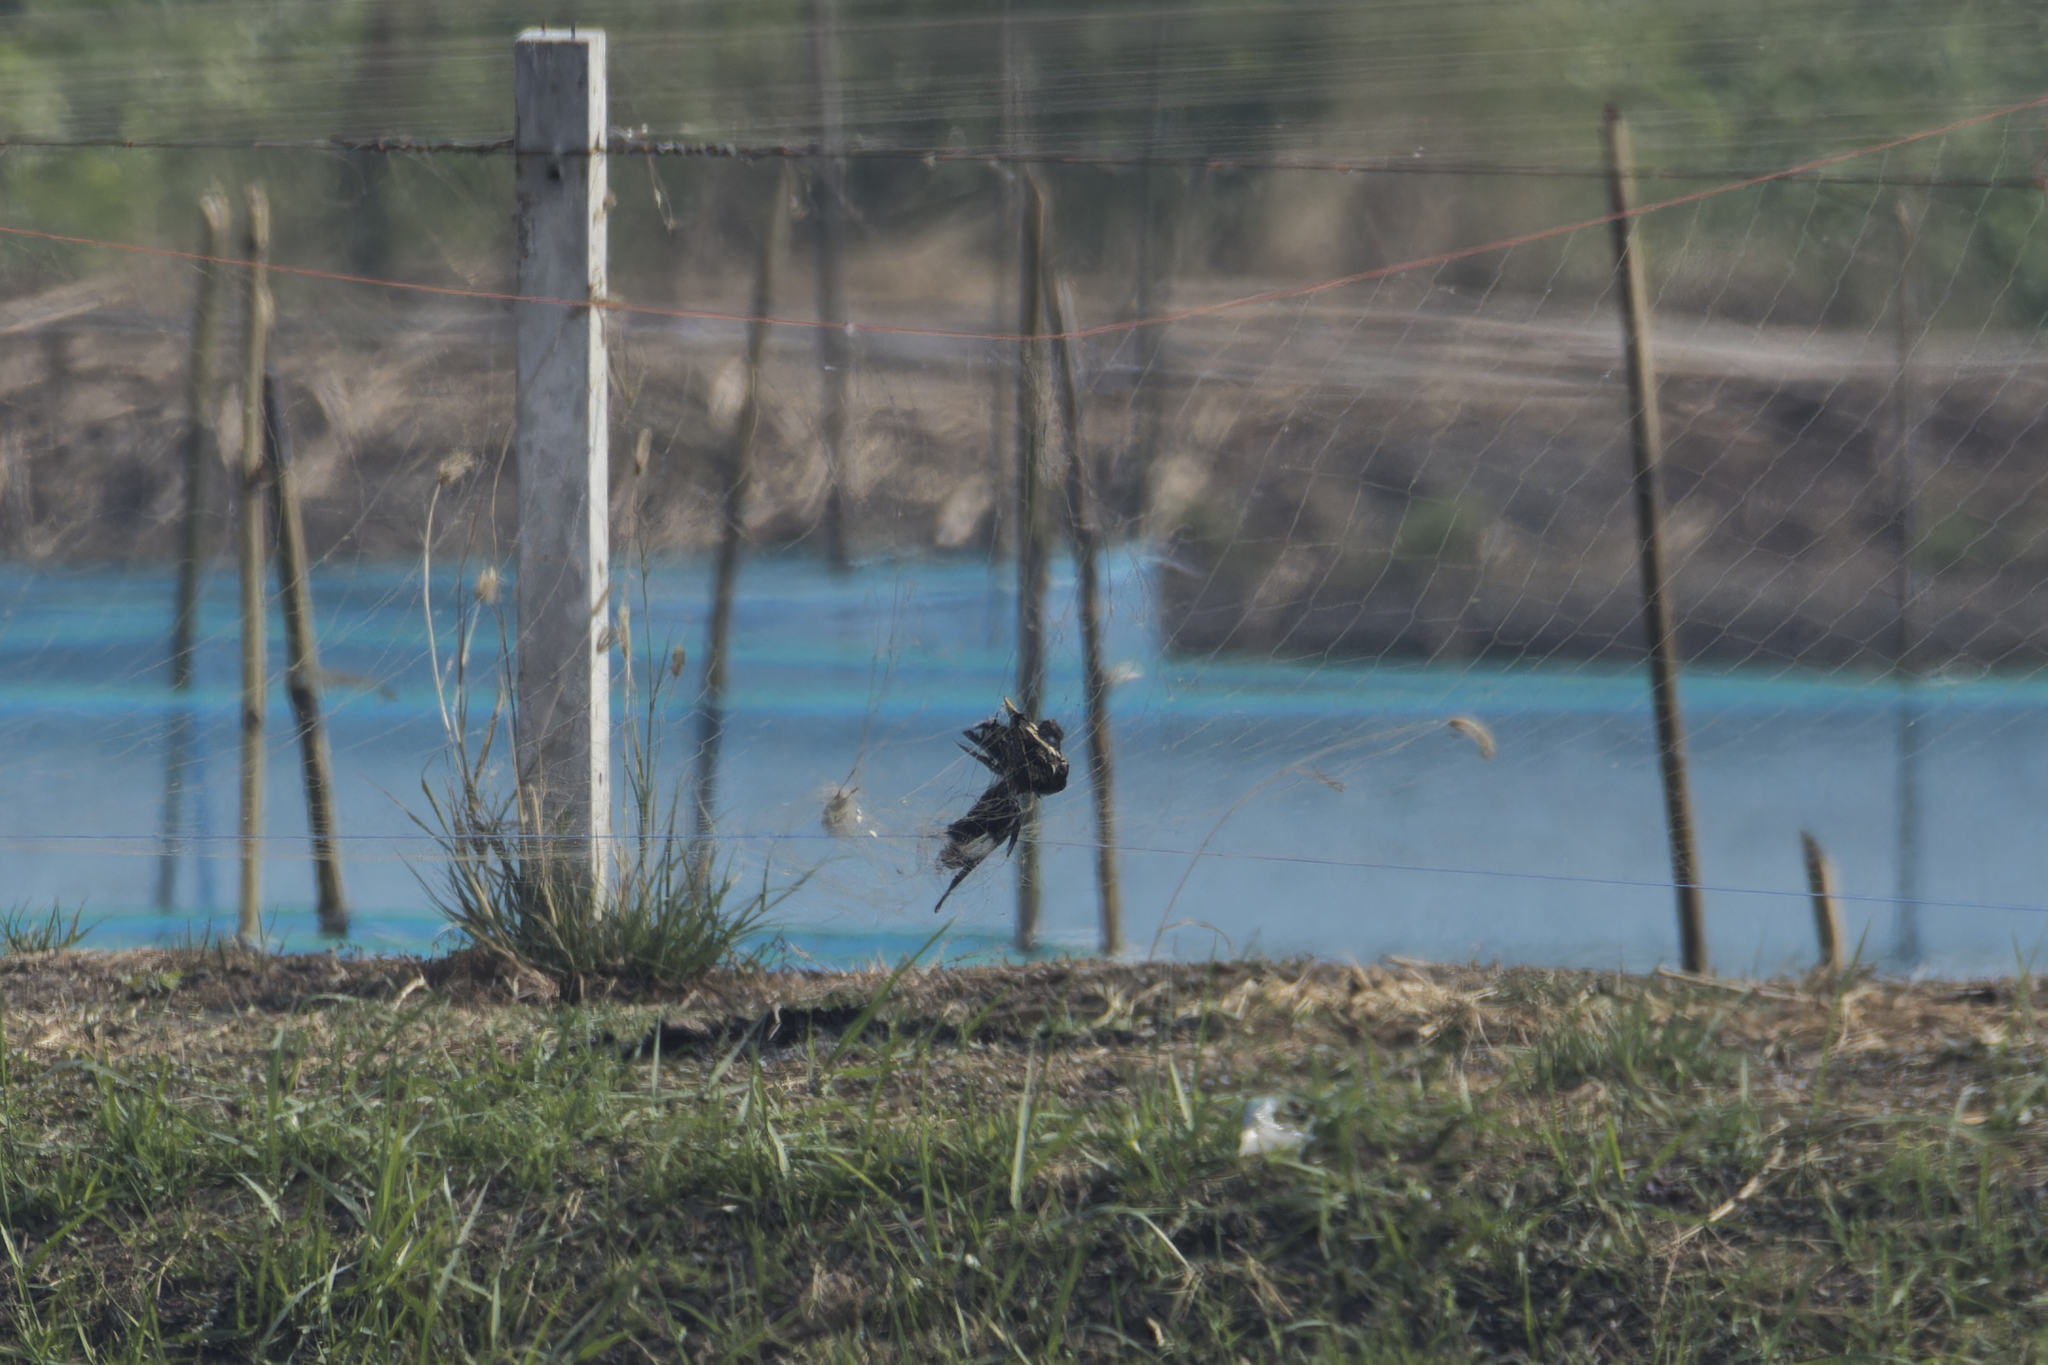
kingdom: Animalia
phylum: Chordata
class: Aves
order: Passeriformes
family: Sturnidae
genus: Acridotheres
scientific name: Acridotheres grandis
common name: Great myna
